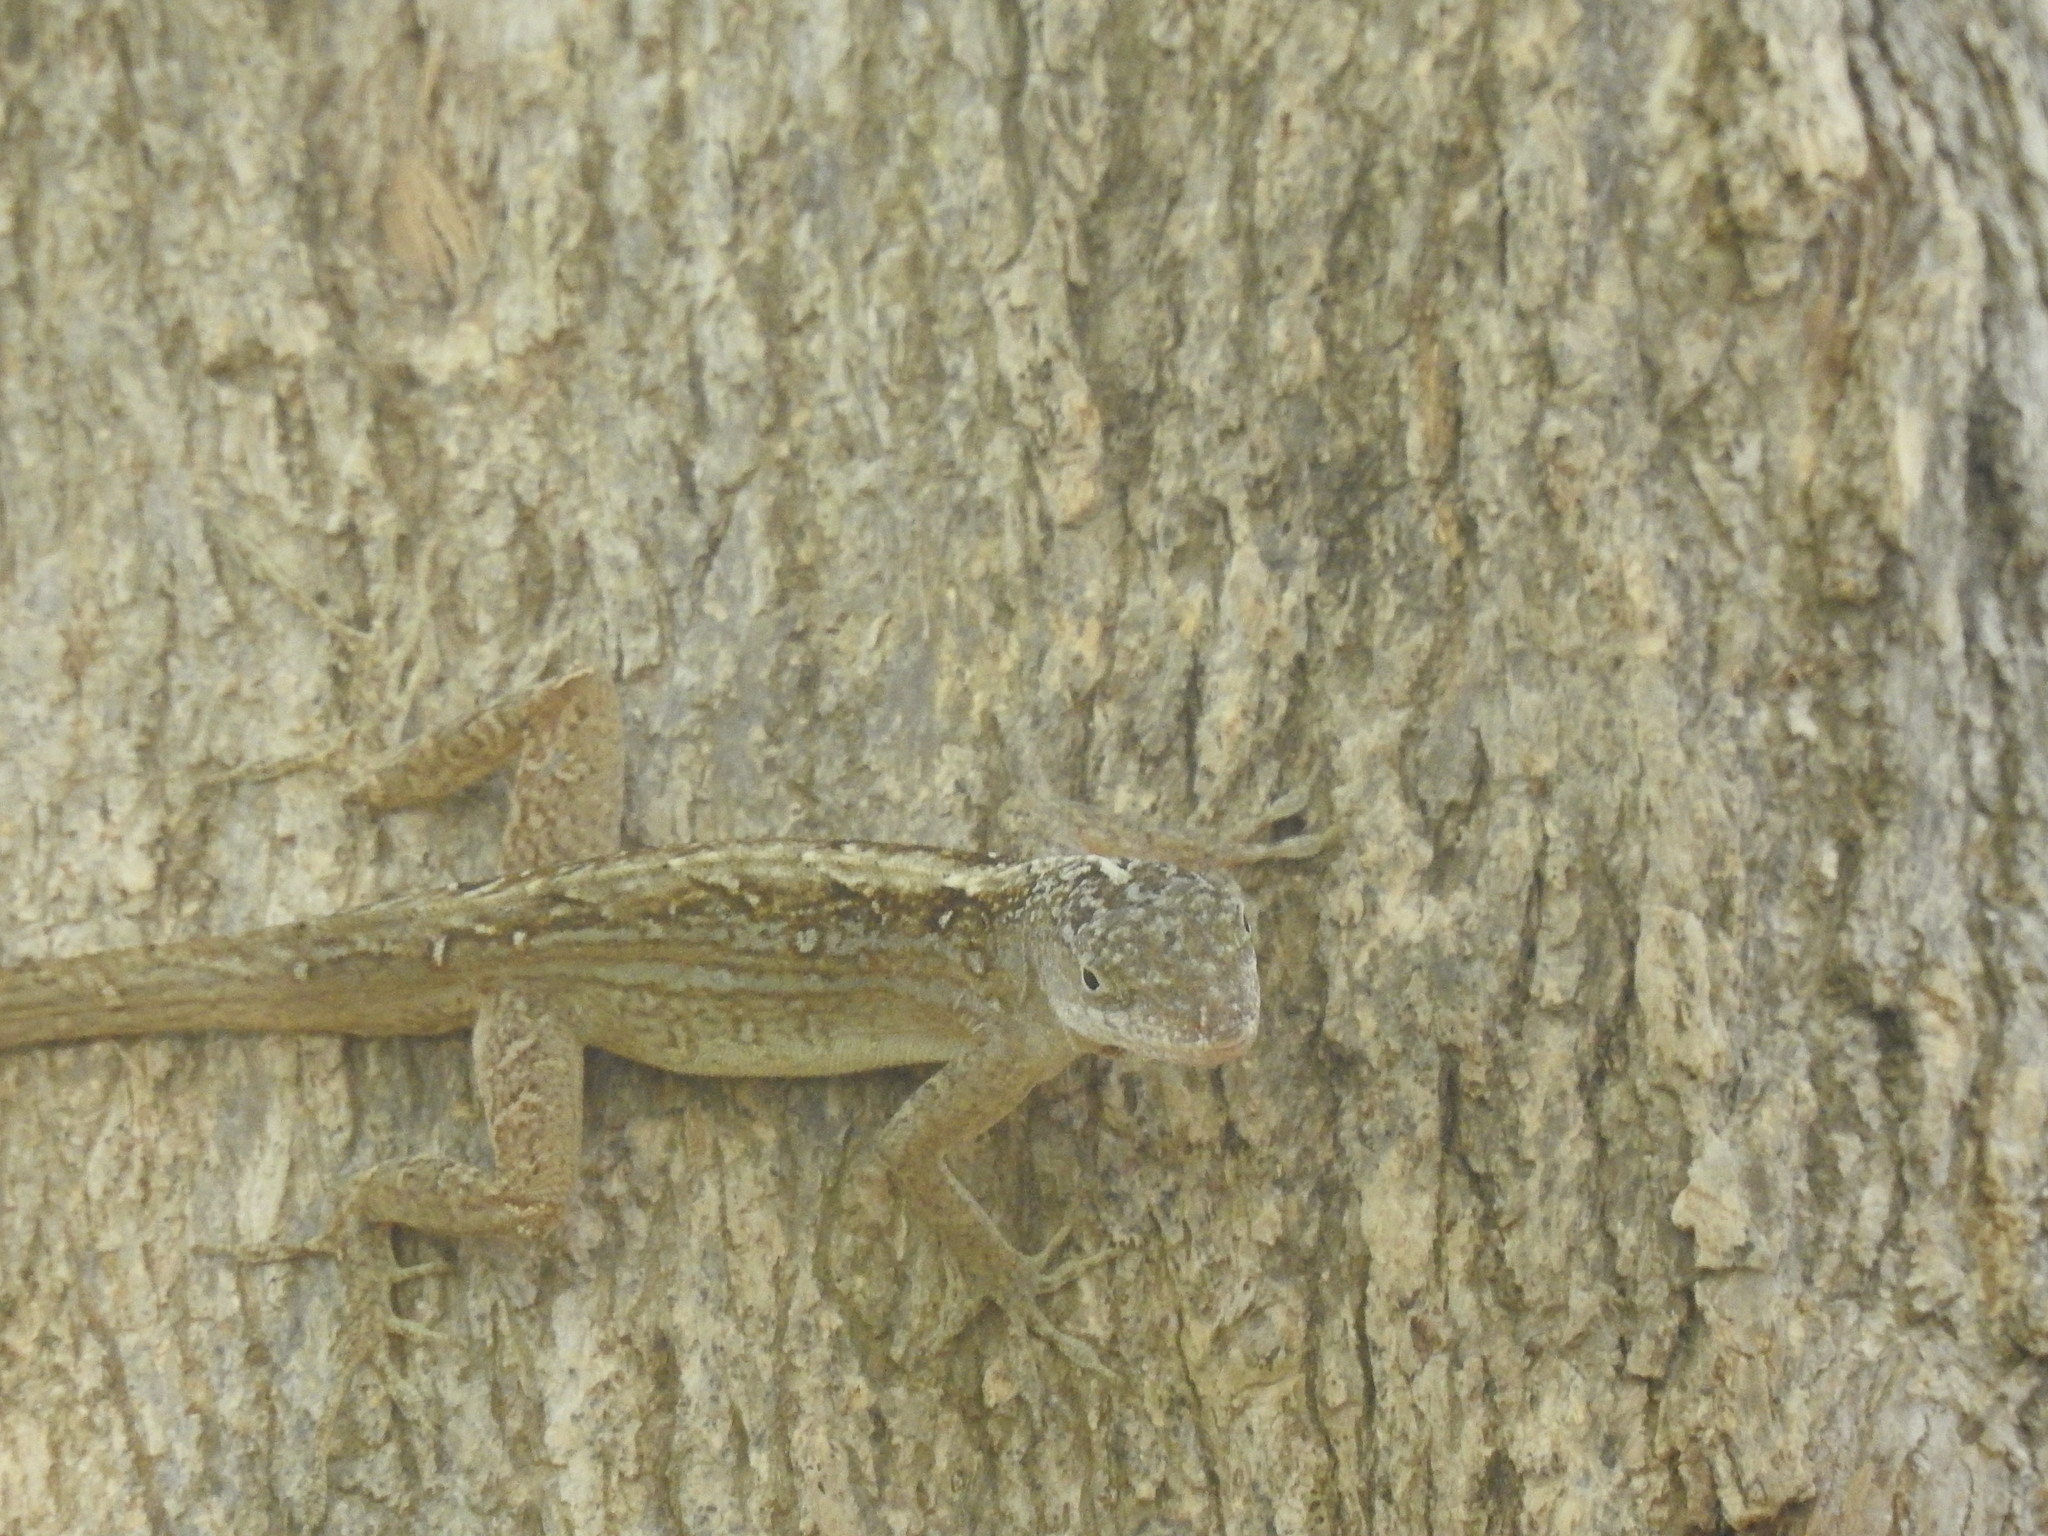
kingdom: Animalia
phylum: Chordata
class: Squamata
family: Dactyloidae
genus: Anolis
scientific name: Anolis sagrei
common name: Brown anole
